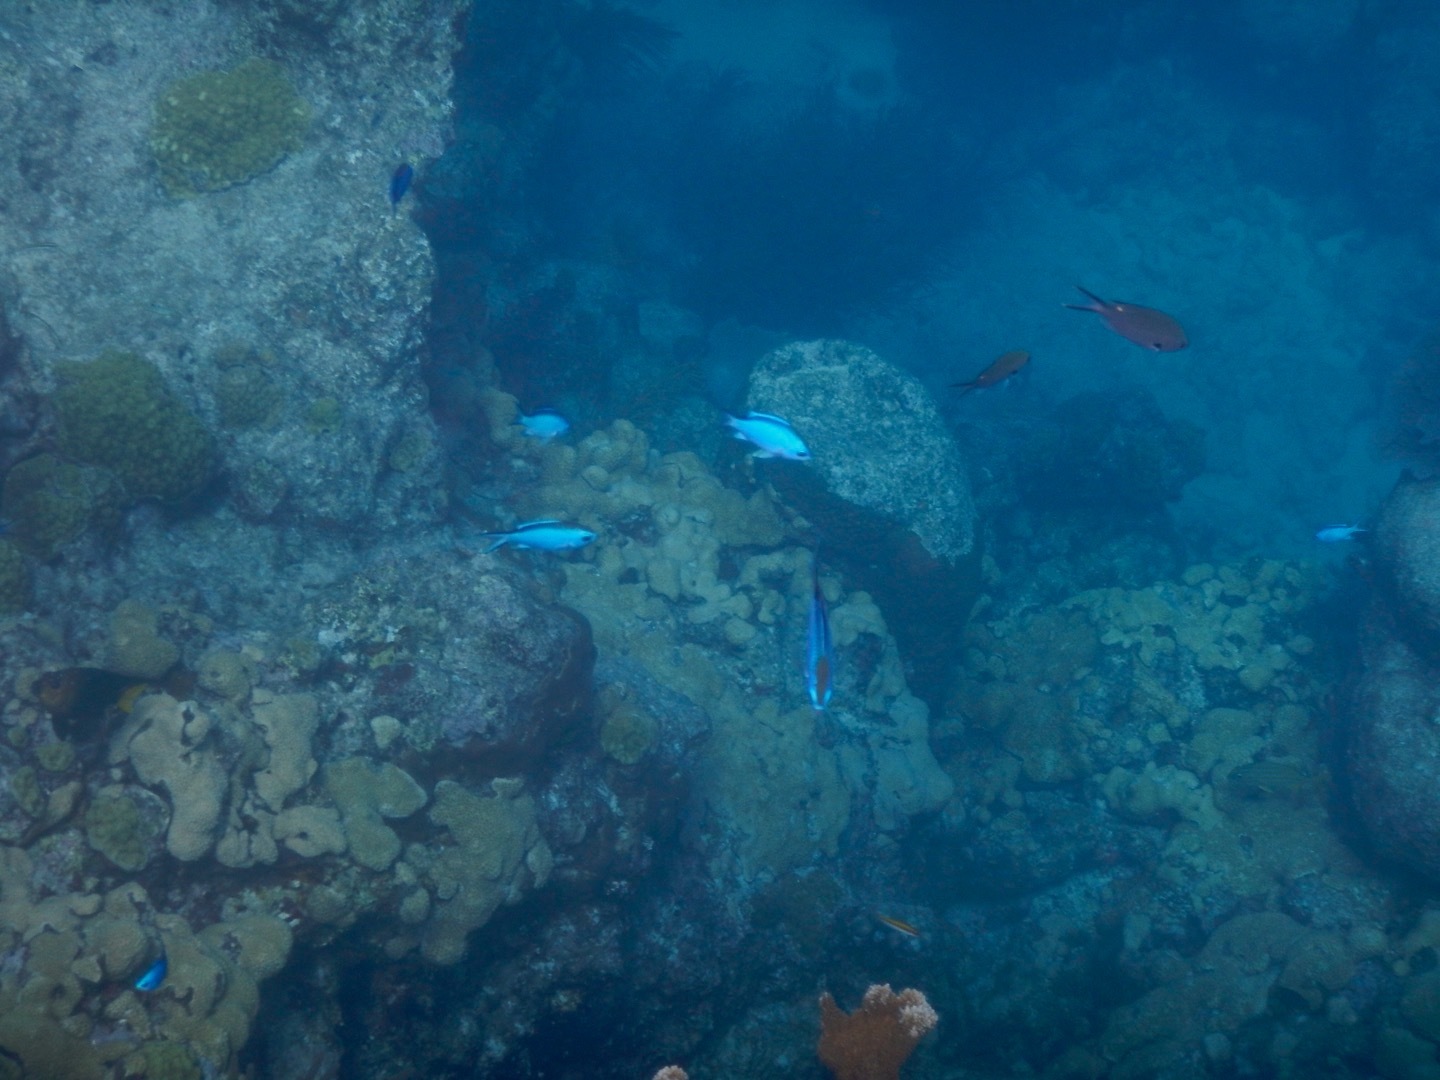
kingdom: Animalia
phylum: Chordata
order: Perciformes
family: Pomacentridae
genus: Chromis
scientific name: Chromis cyanea
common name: Blue chromis
